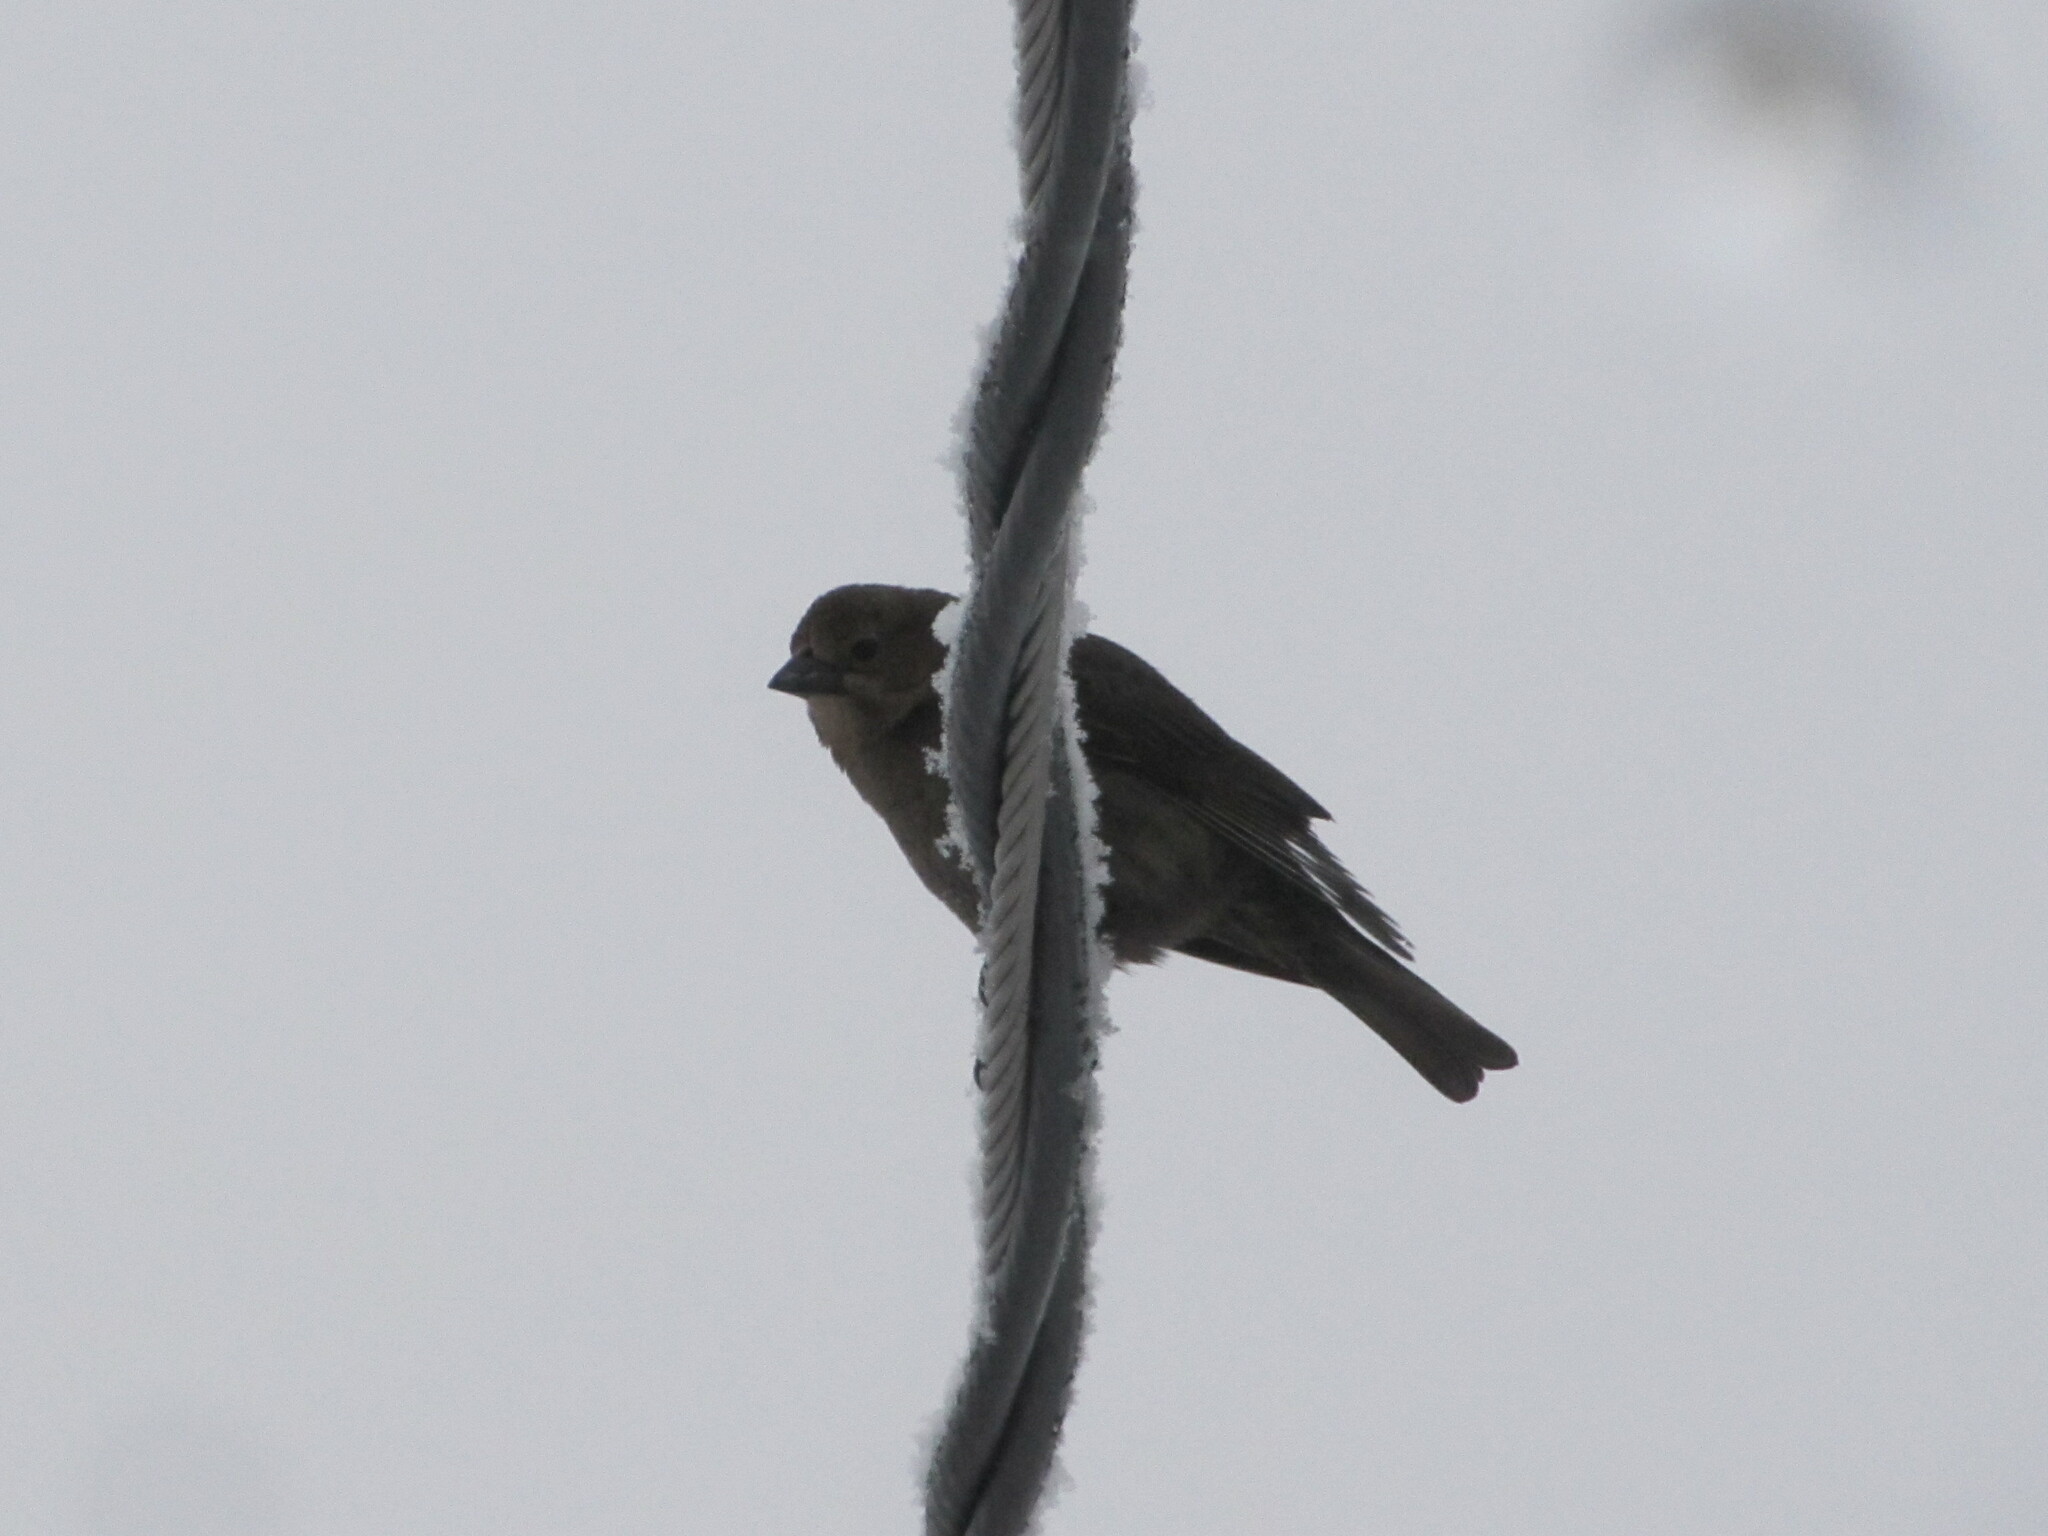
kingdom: Animalia
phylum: Chordata
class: Aves
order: Passeriformes
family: Icteridae
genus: Molothrus
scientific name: Molothrus ater
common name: Brown-headed cowbird
